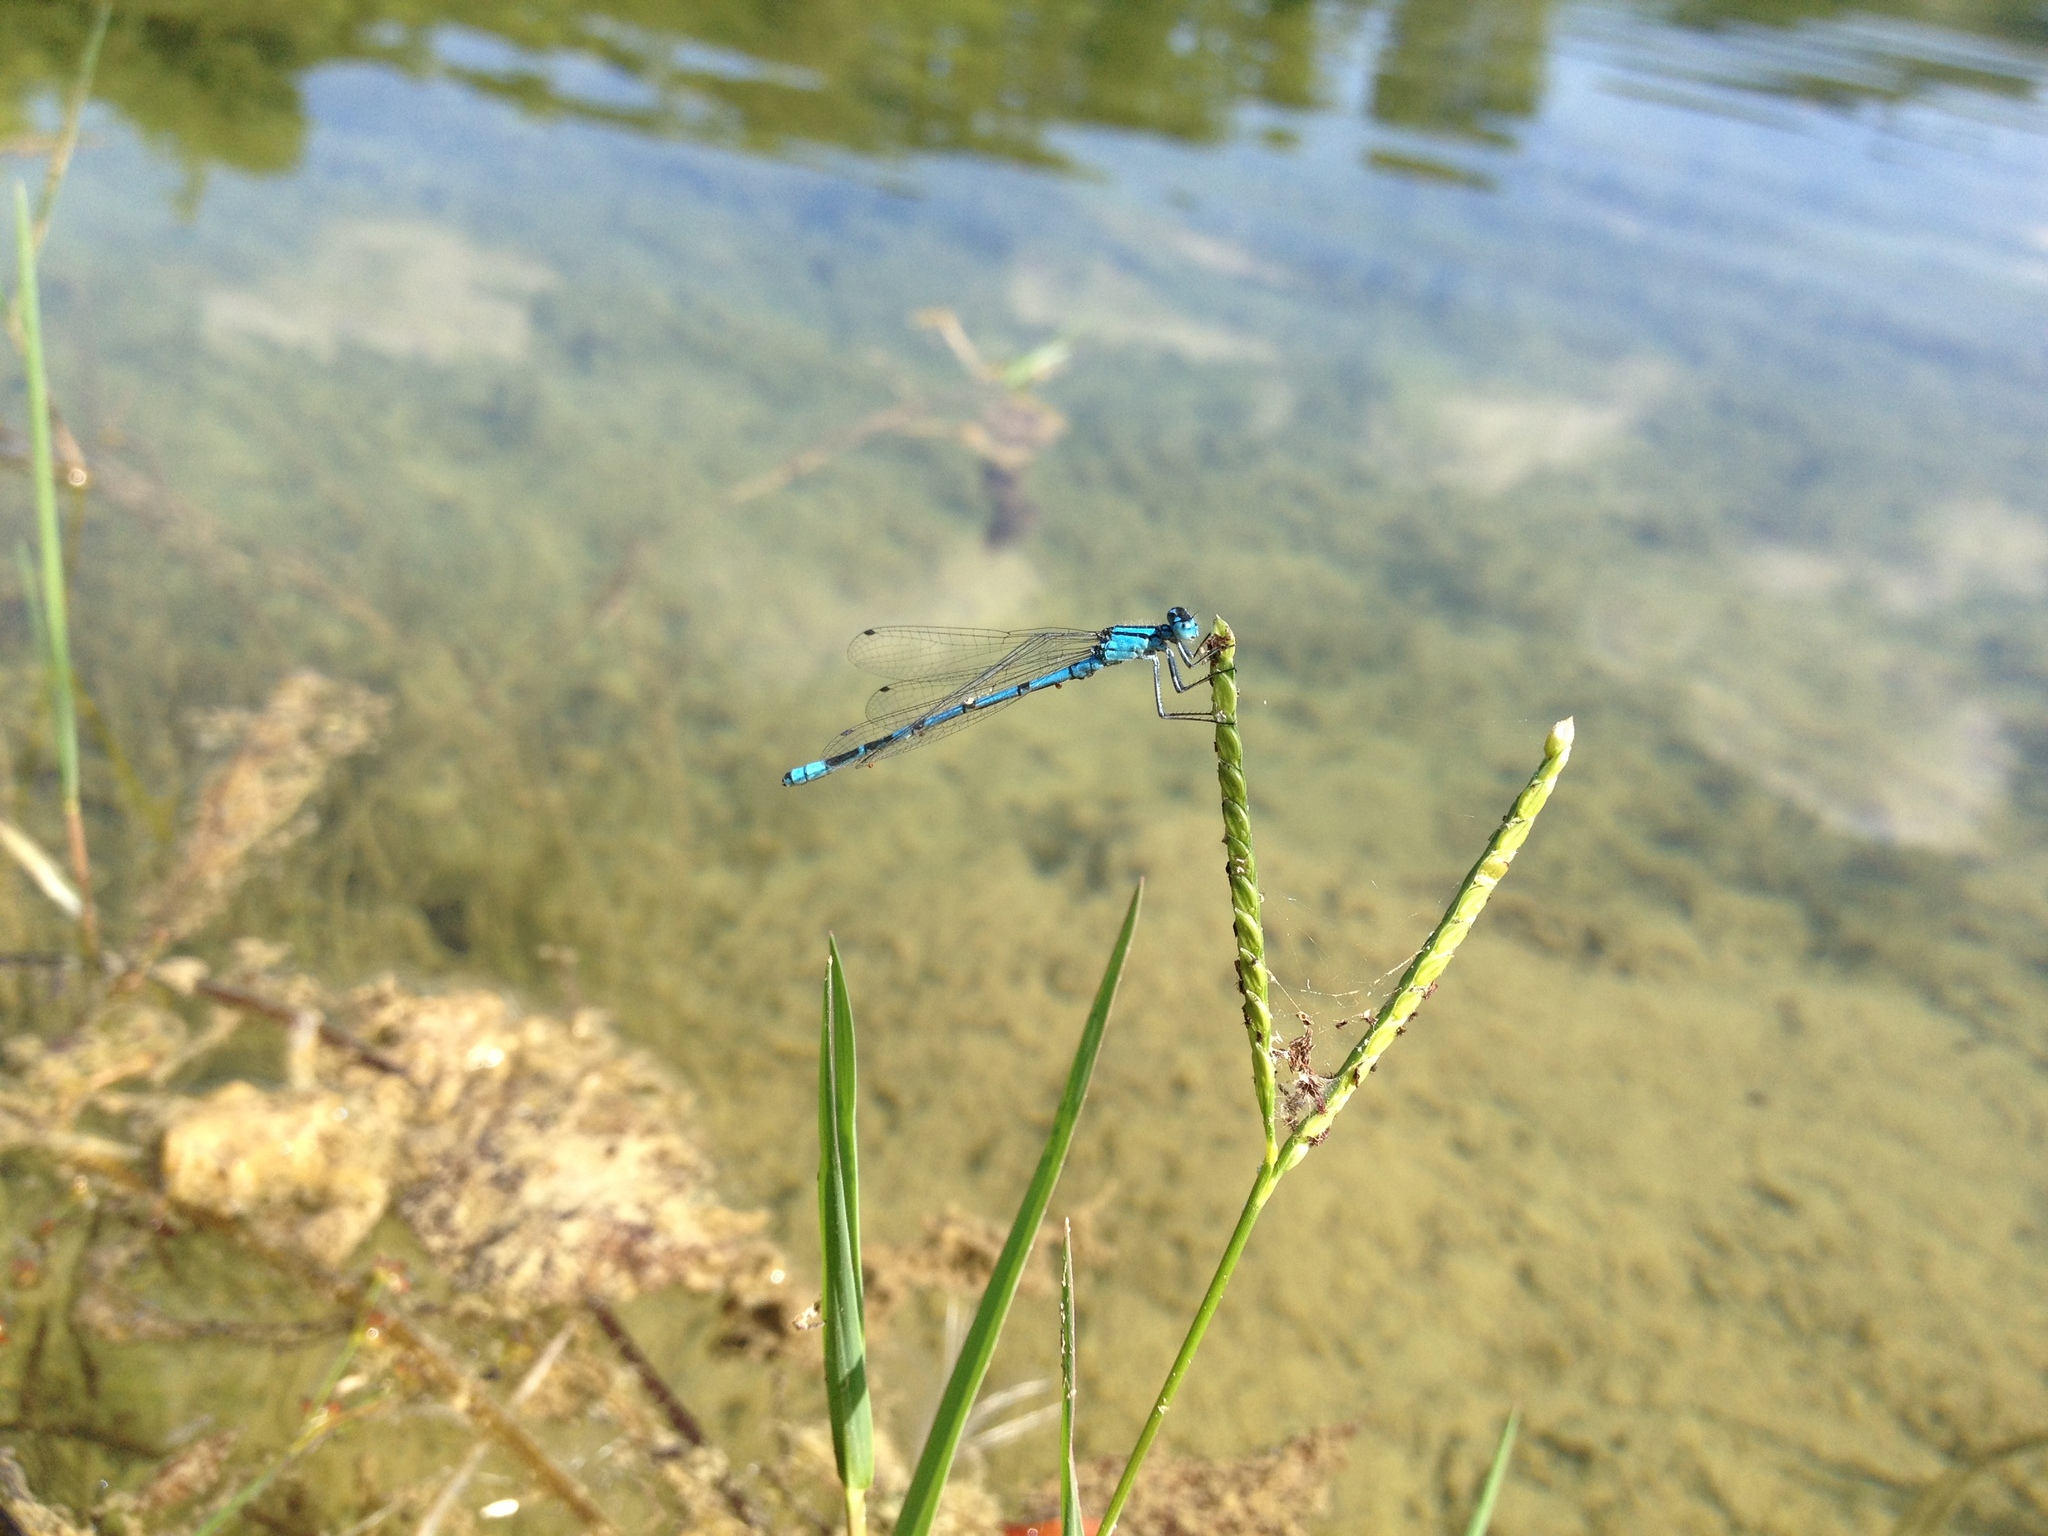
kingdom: Animalia
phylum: Arthropoda
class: Insecta
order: Odonata
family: Coenagrionidae
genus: Enallagma
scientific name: Enallagma cyathigerum
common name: Common blue damselfly
